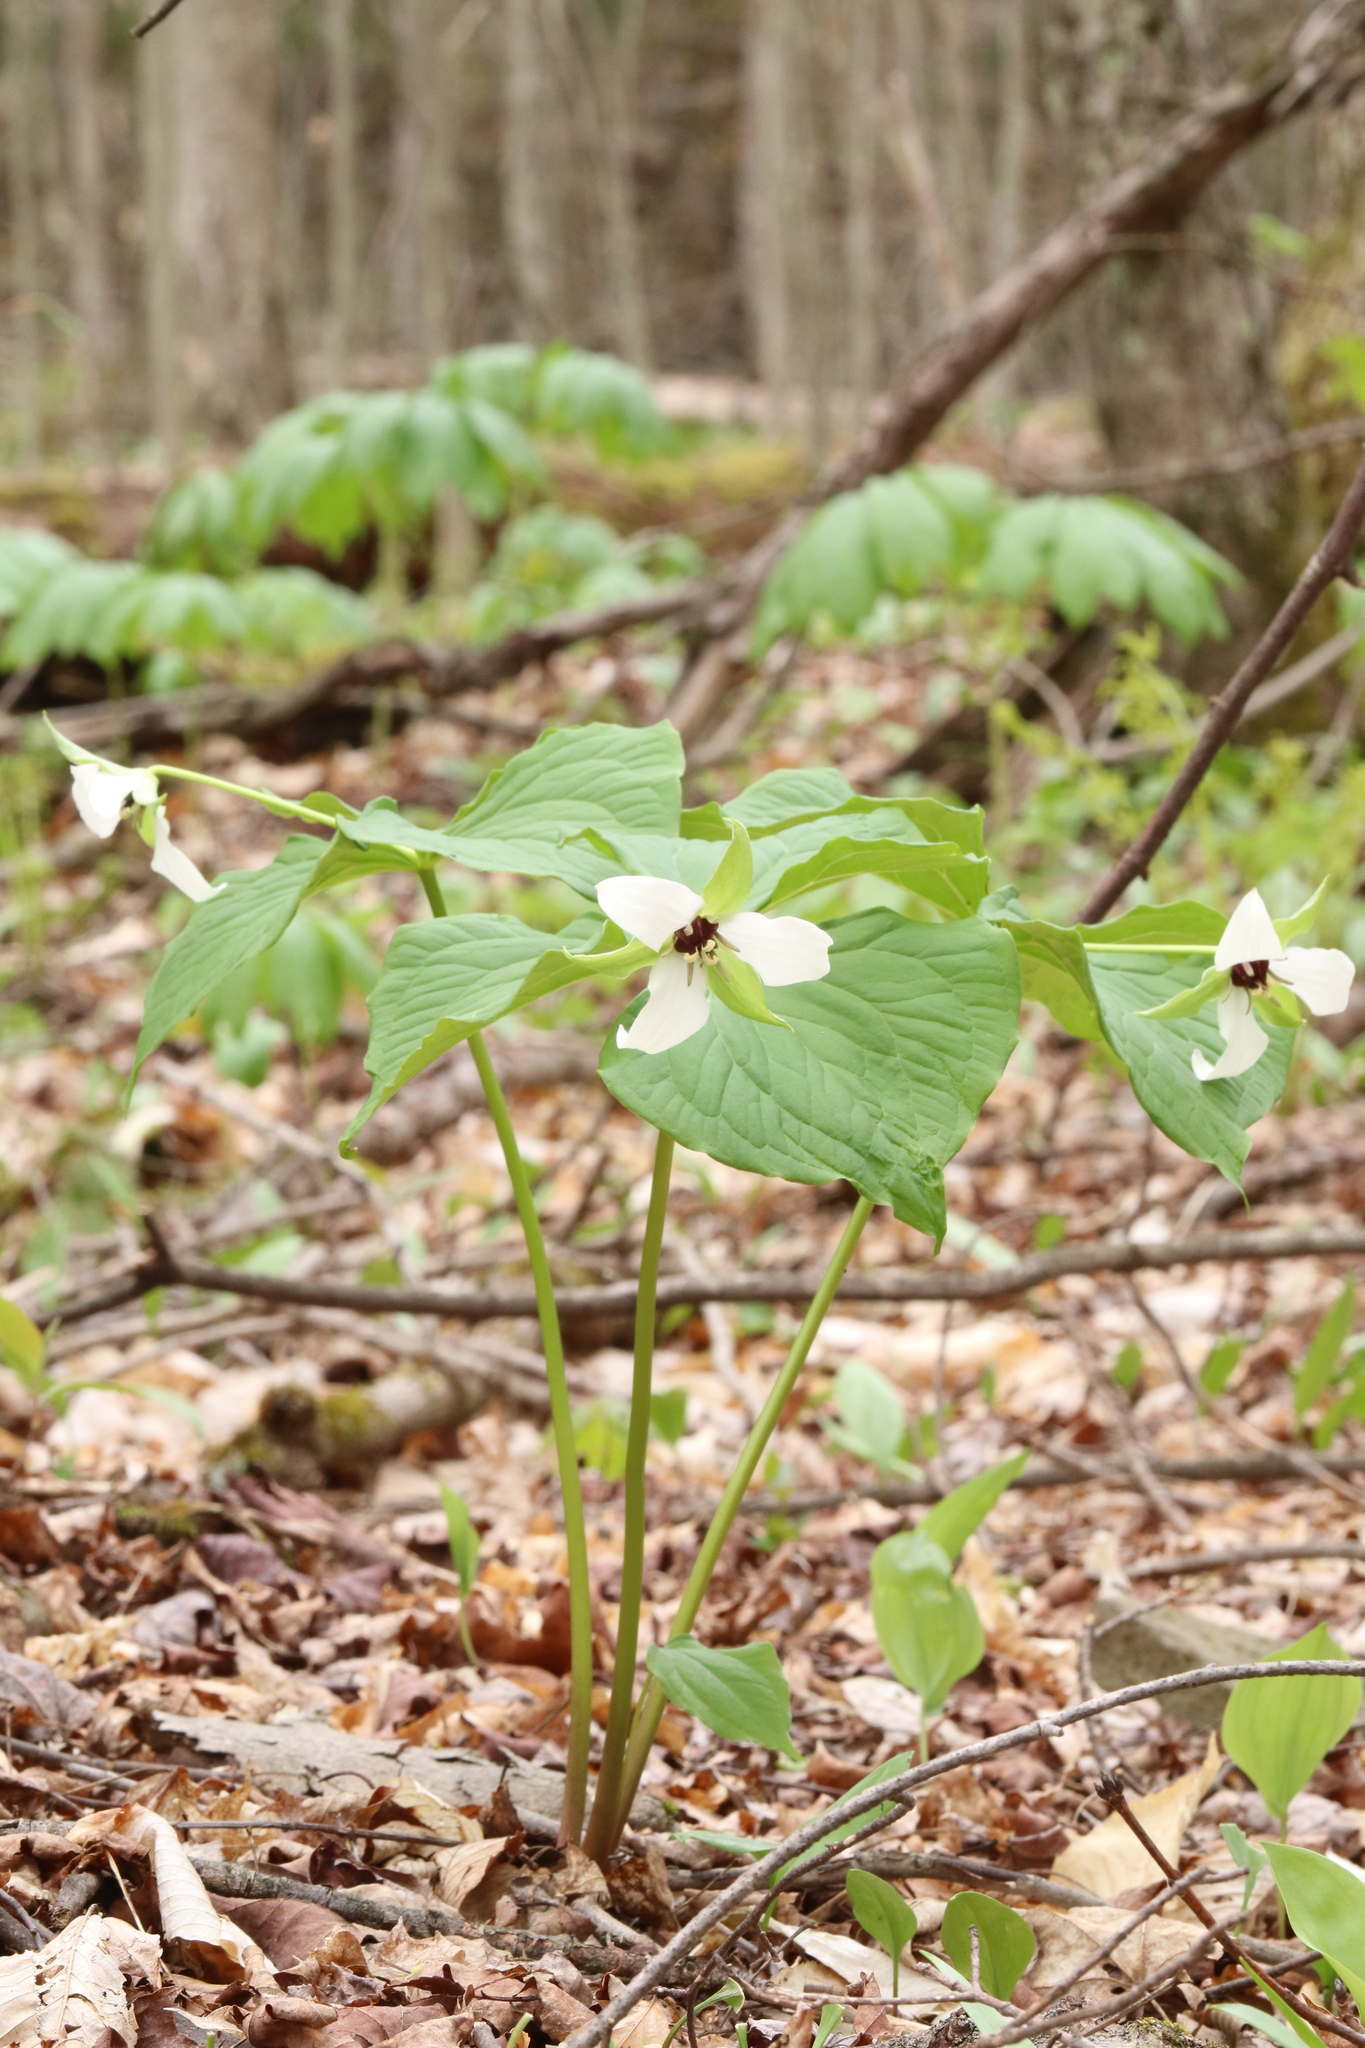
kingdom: Plantae
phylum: Tracheophyta
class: Liliopsida
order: Liliales
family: Melanthiaceae
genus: Trillium
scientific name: Trillium erectum
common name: Purple trillium
